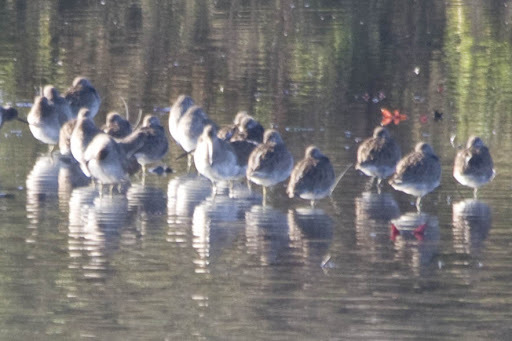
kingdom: Animalia
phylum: Chordata
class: Aves
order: Charadriiformes
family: Scolopacidae
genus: Limnodromus
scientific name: Limnodromus
